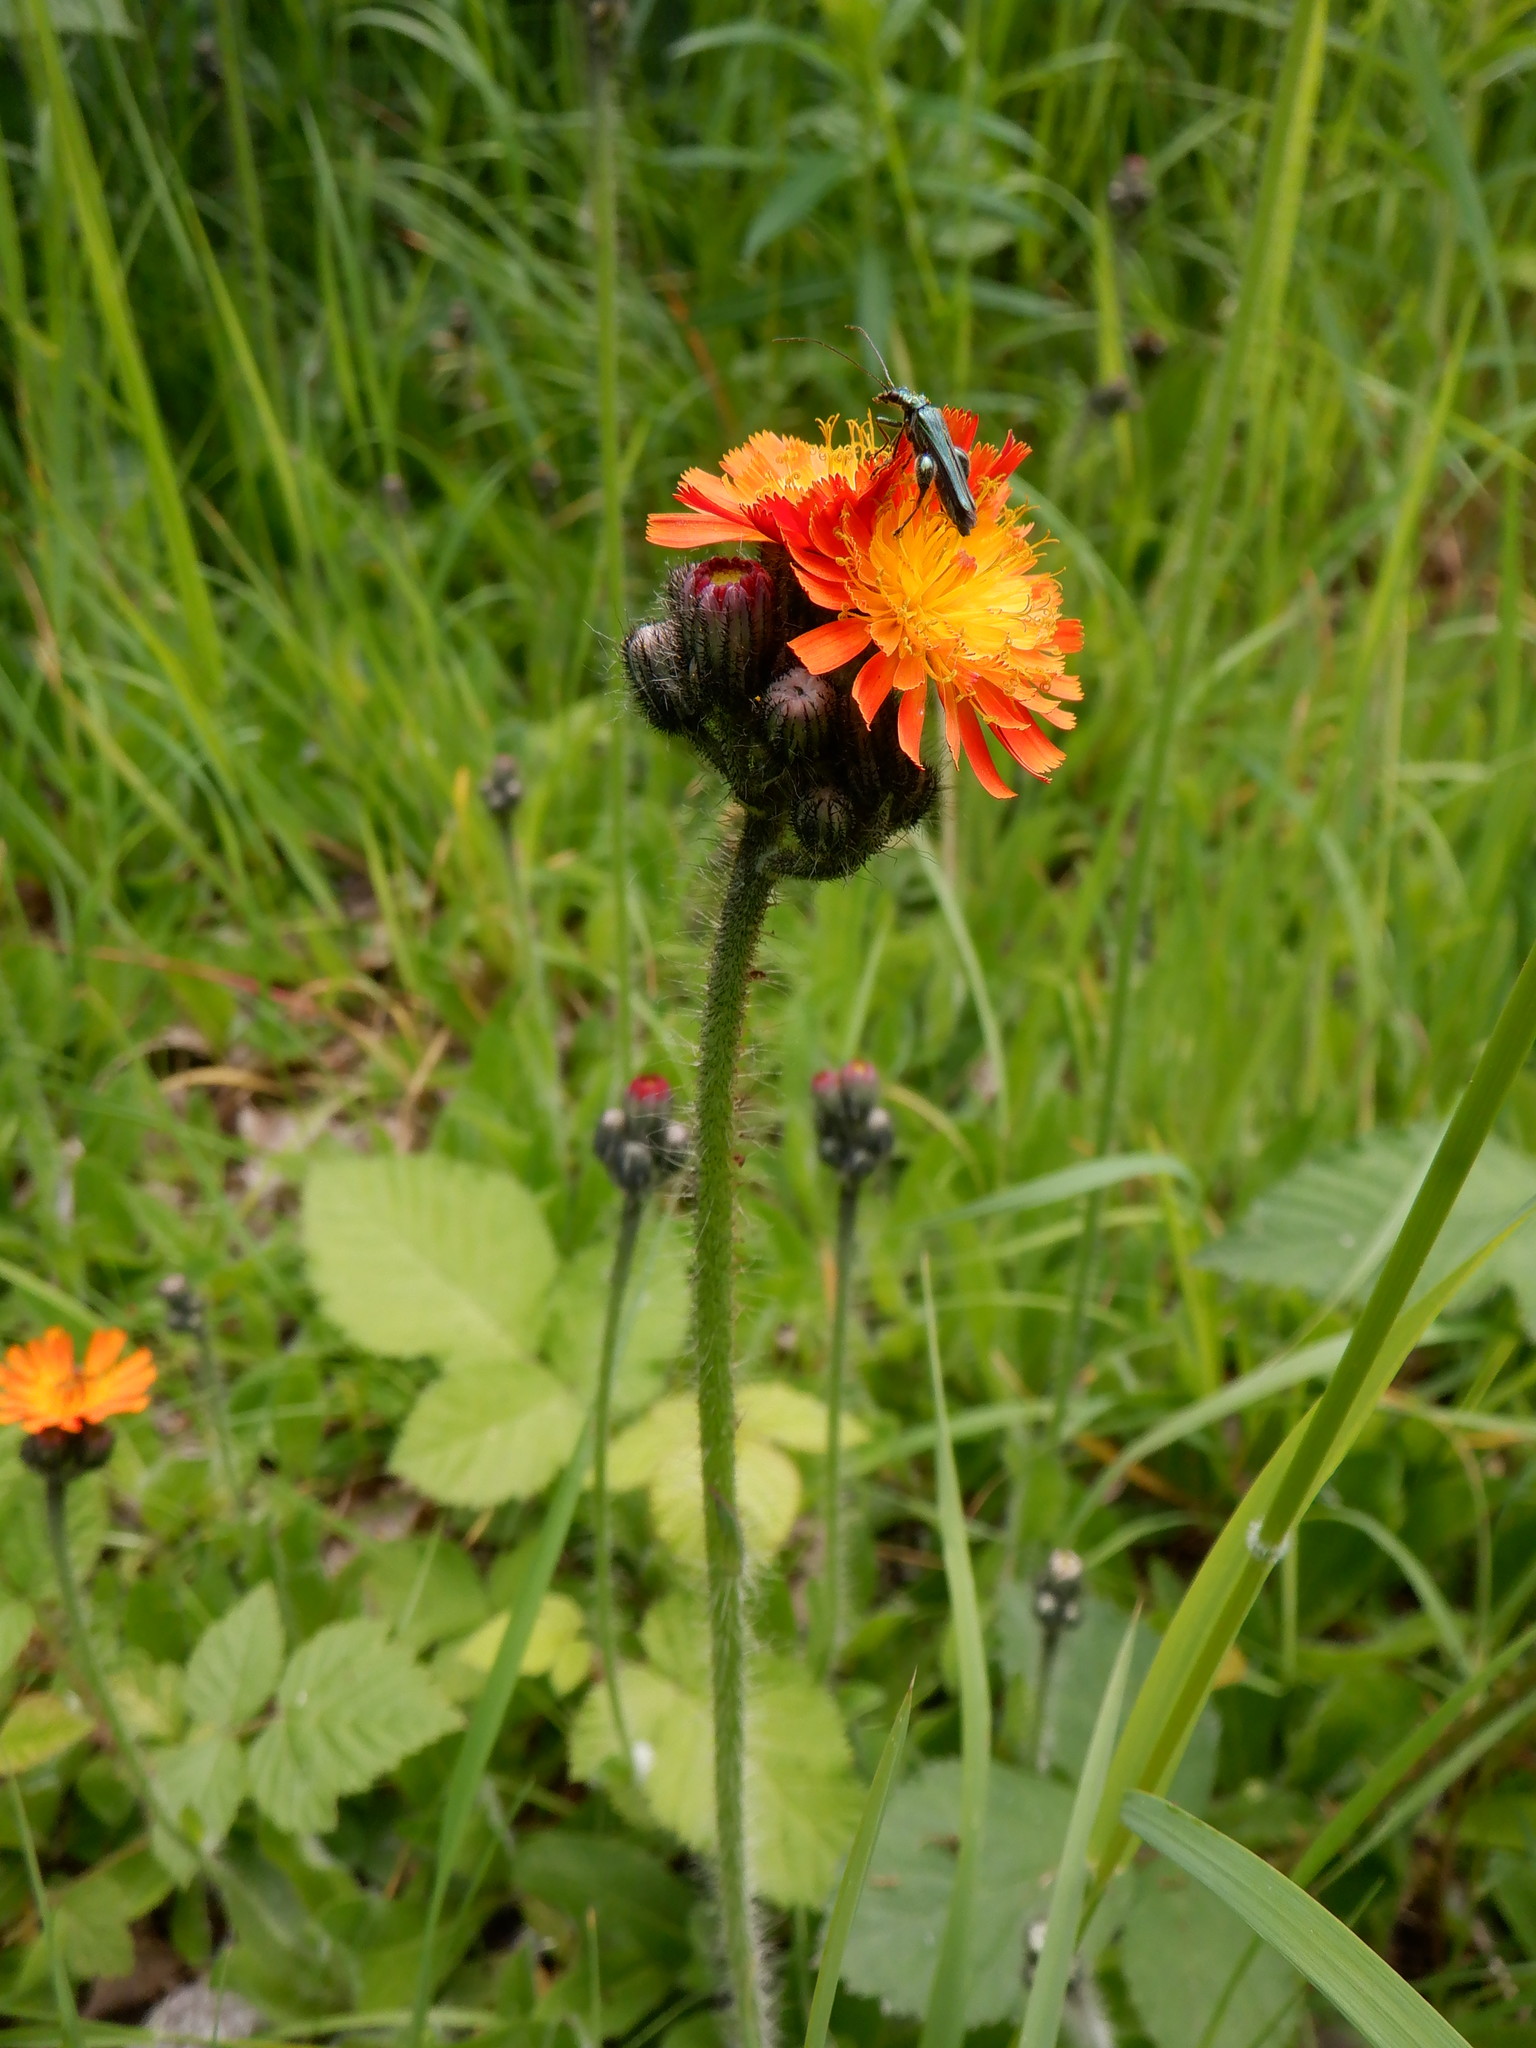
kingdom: Plantae
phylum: Tracheophyta
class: Magnoliopsida
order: Asterales
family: Asteraceae
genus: Pilosella
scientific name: Pilosella aurantiaca
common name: Fox-and-cubs
